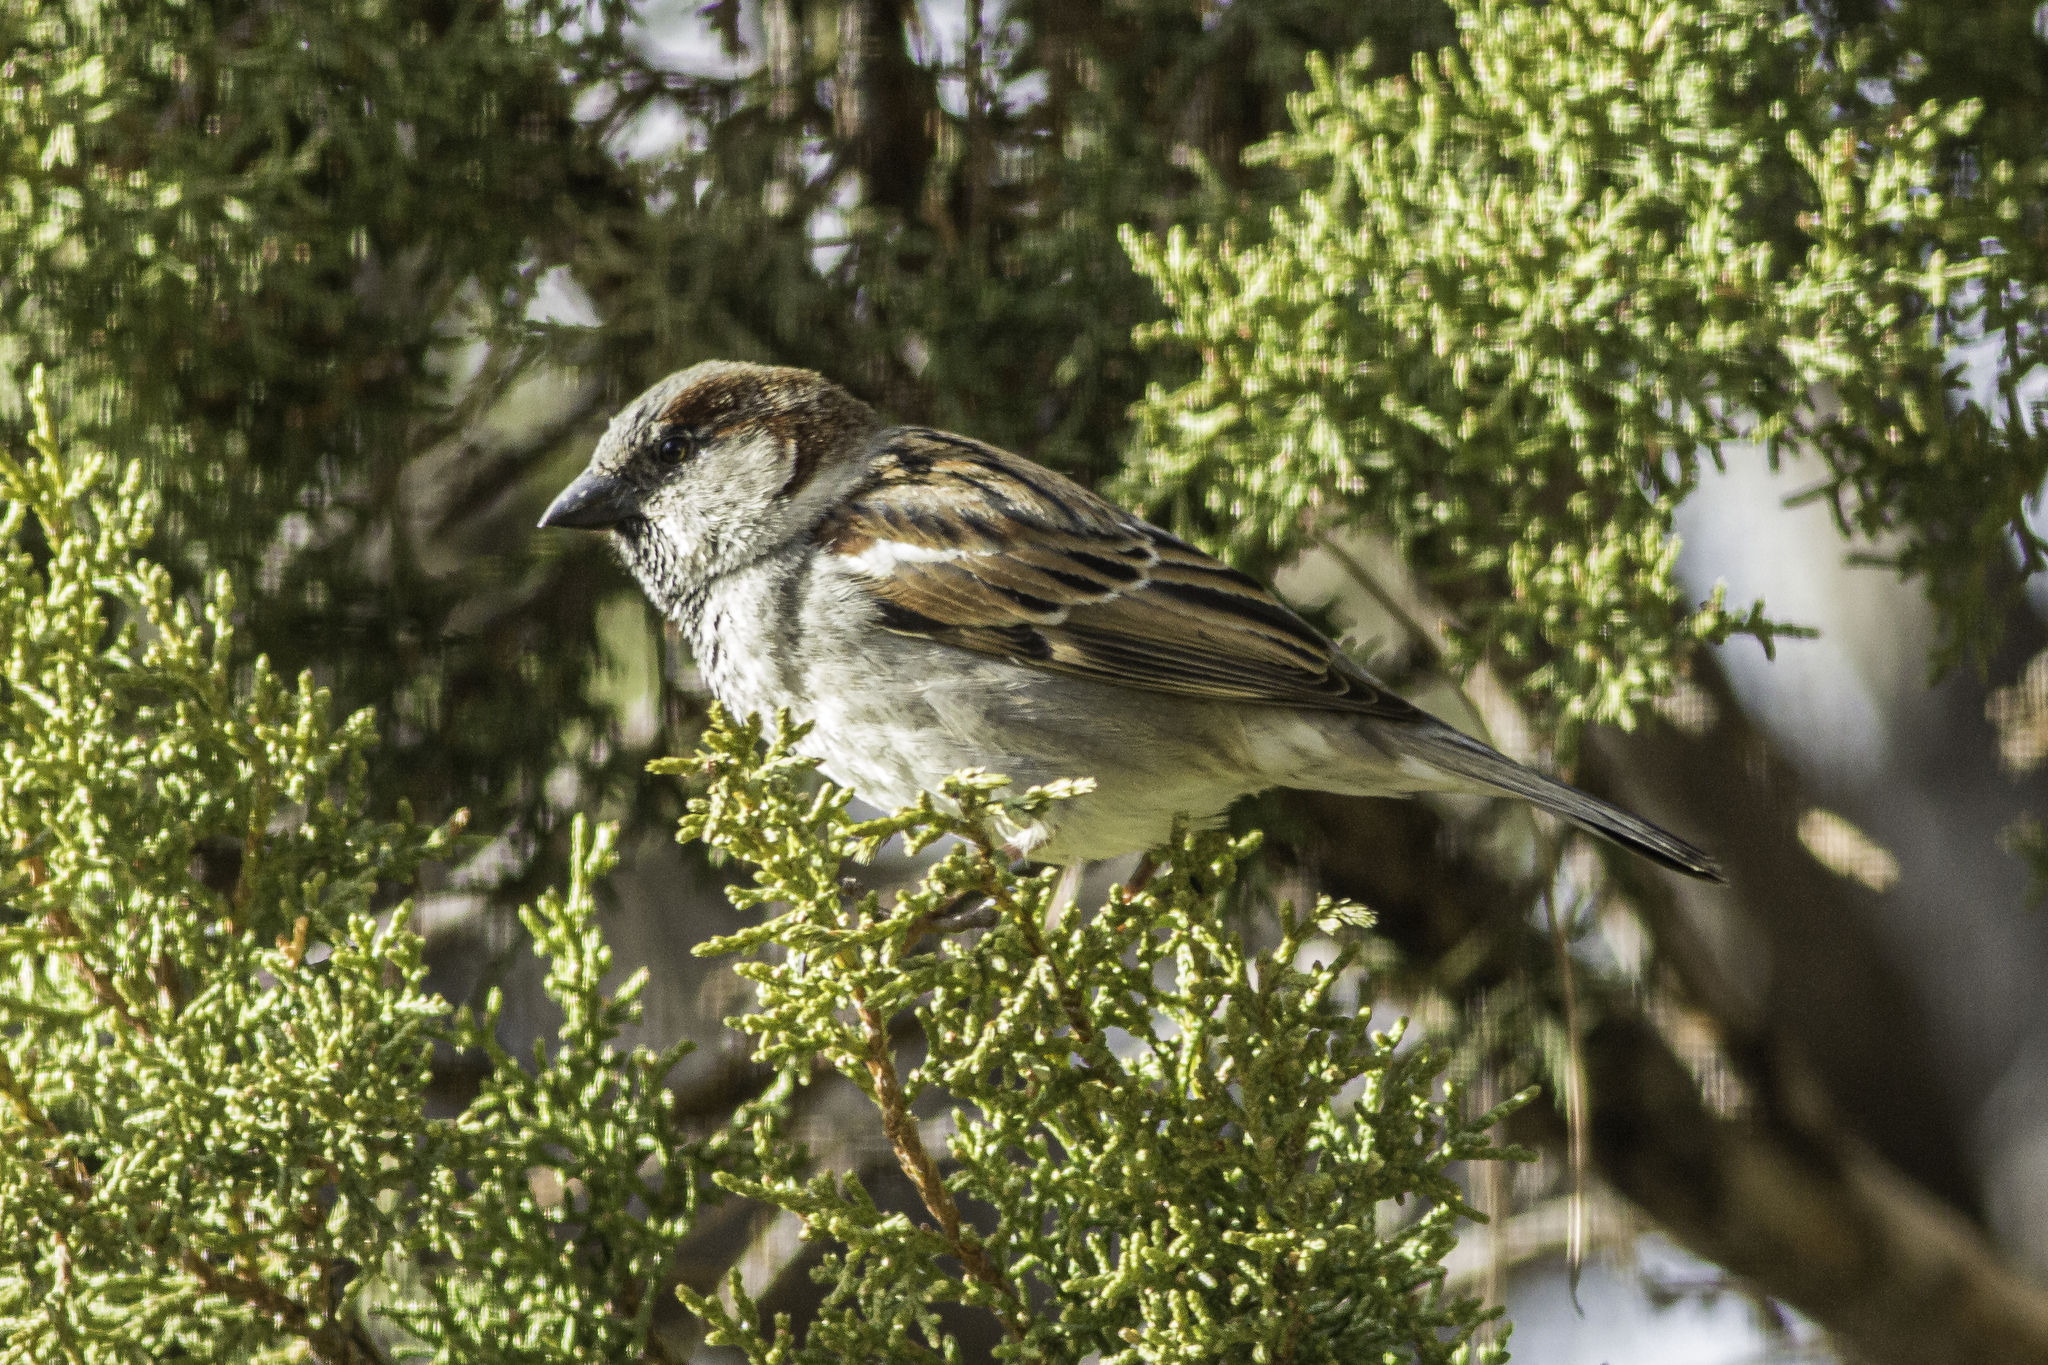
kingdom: Animalia
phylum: Chordata
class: Aves
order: Passeriformes
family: Passeridae
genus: Passer
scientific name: Passer domesticus
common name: House sparrow
